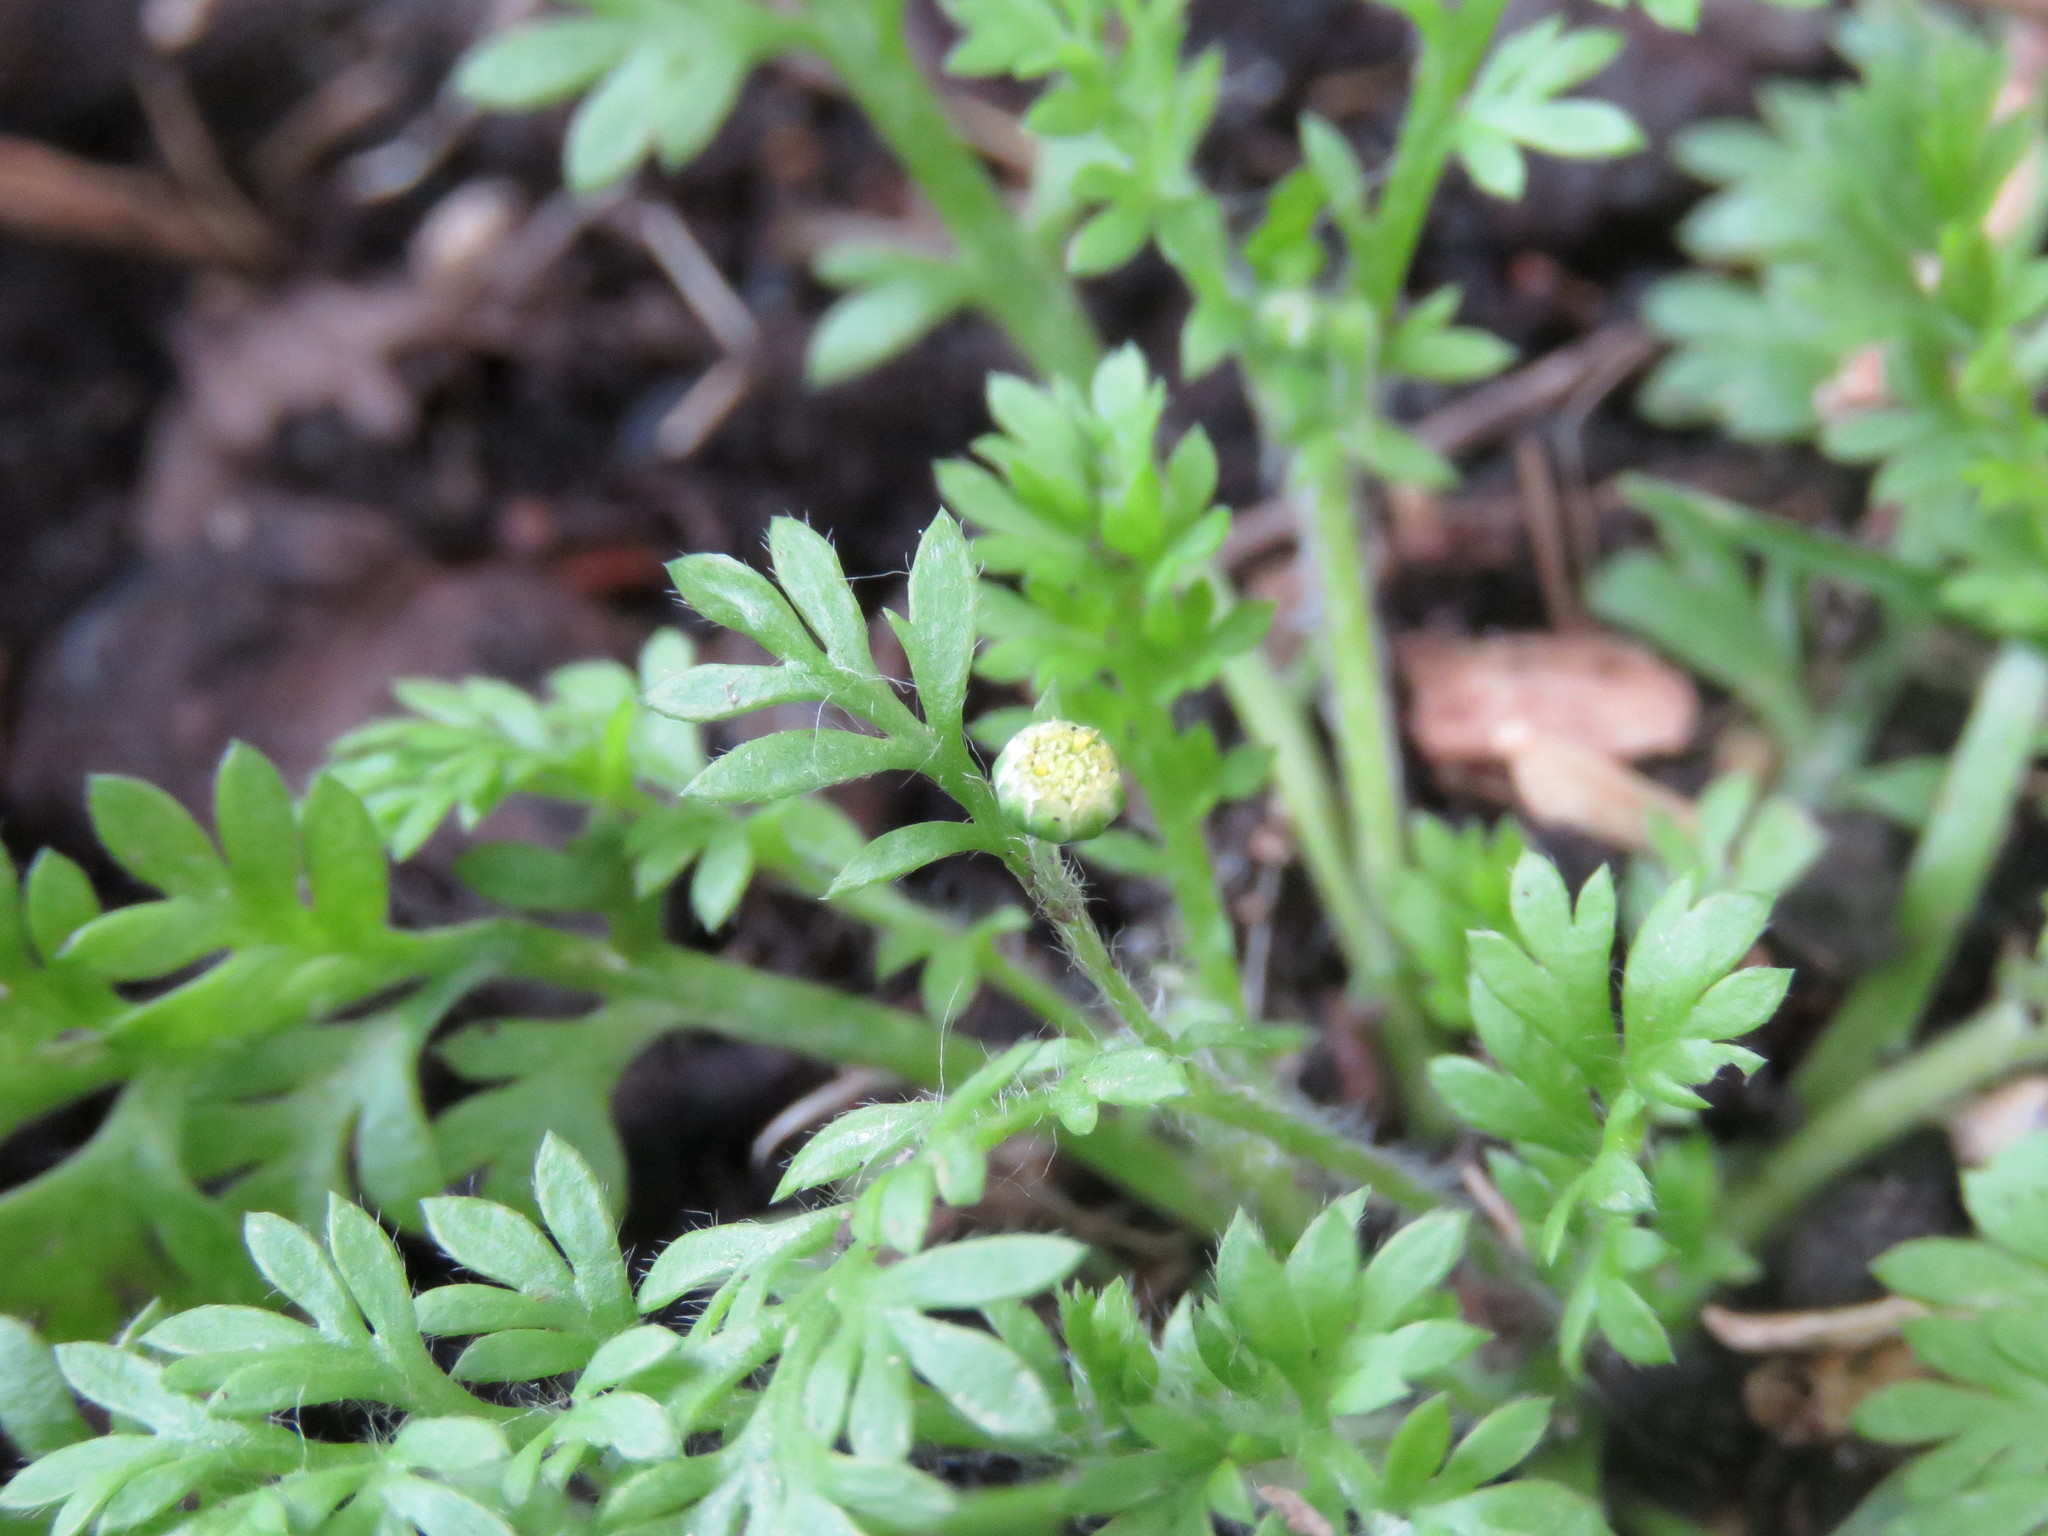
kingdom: Plantae
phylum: Tracheophyta
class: Magnoliopsida
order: Asterales
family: Asteraceae
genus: Cotula
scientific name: Cotula australis
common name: Australian waterbuttons
